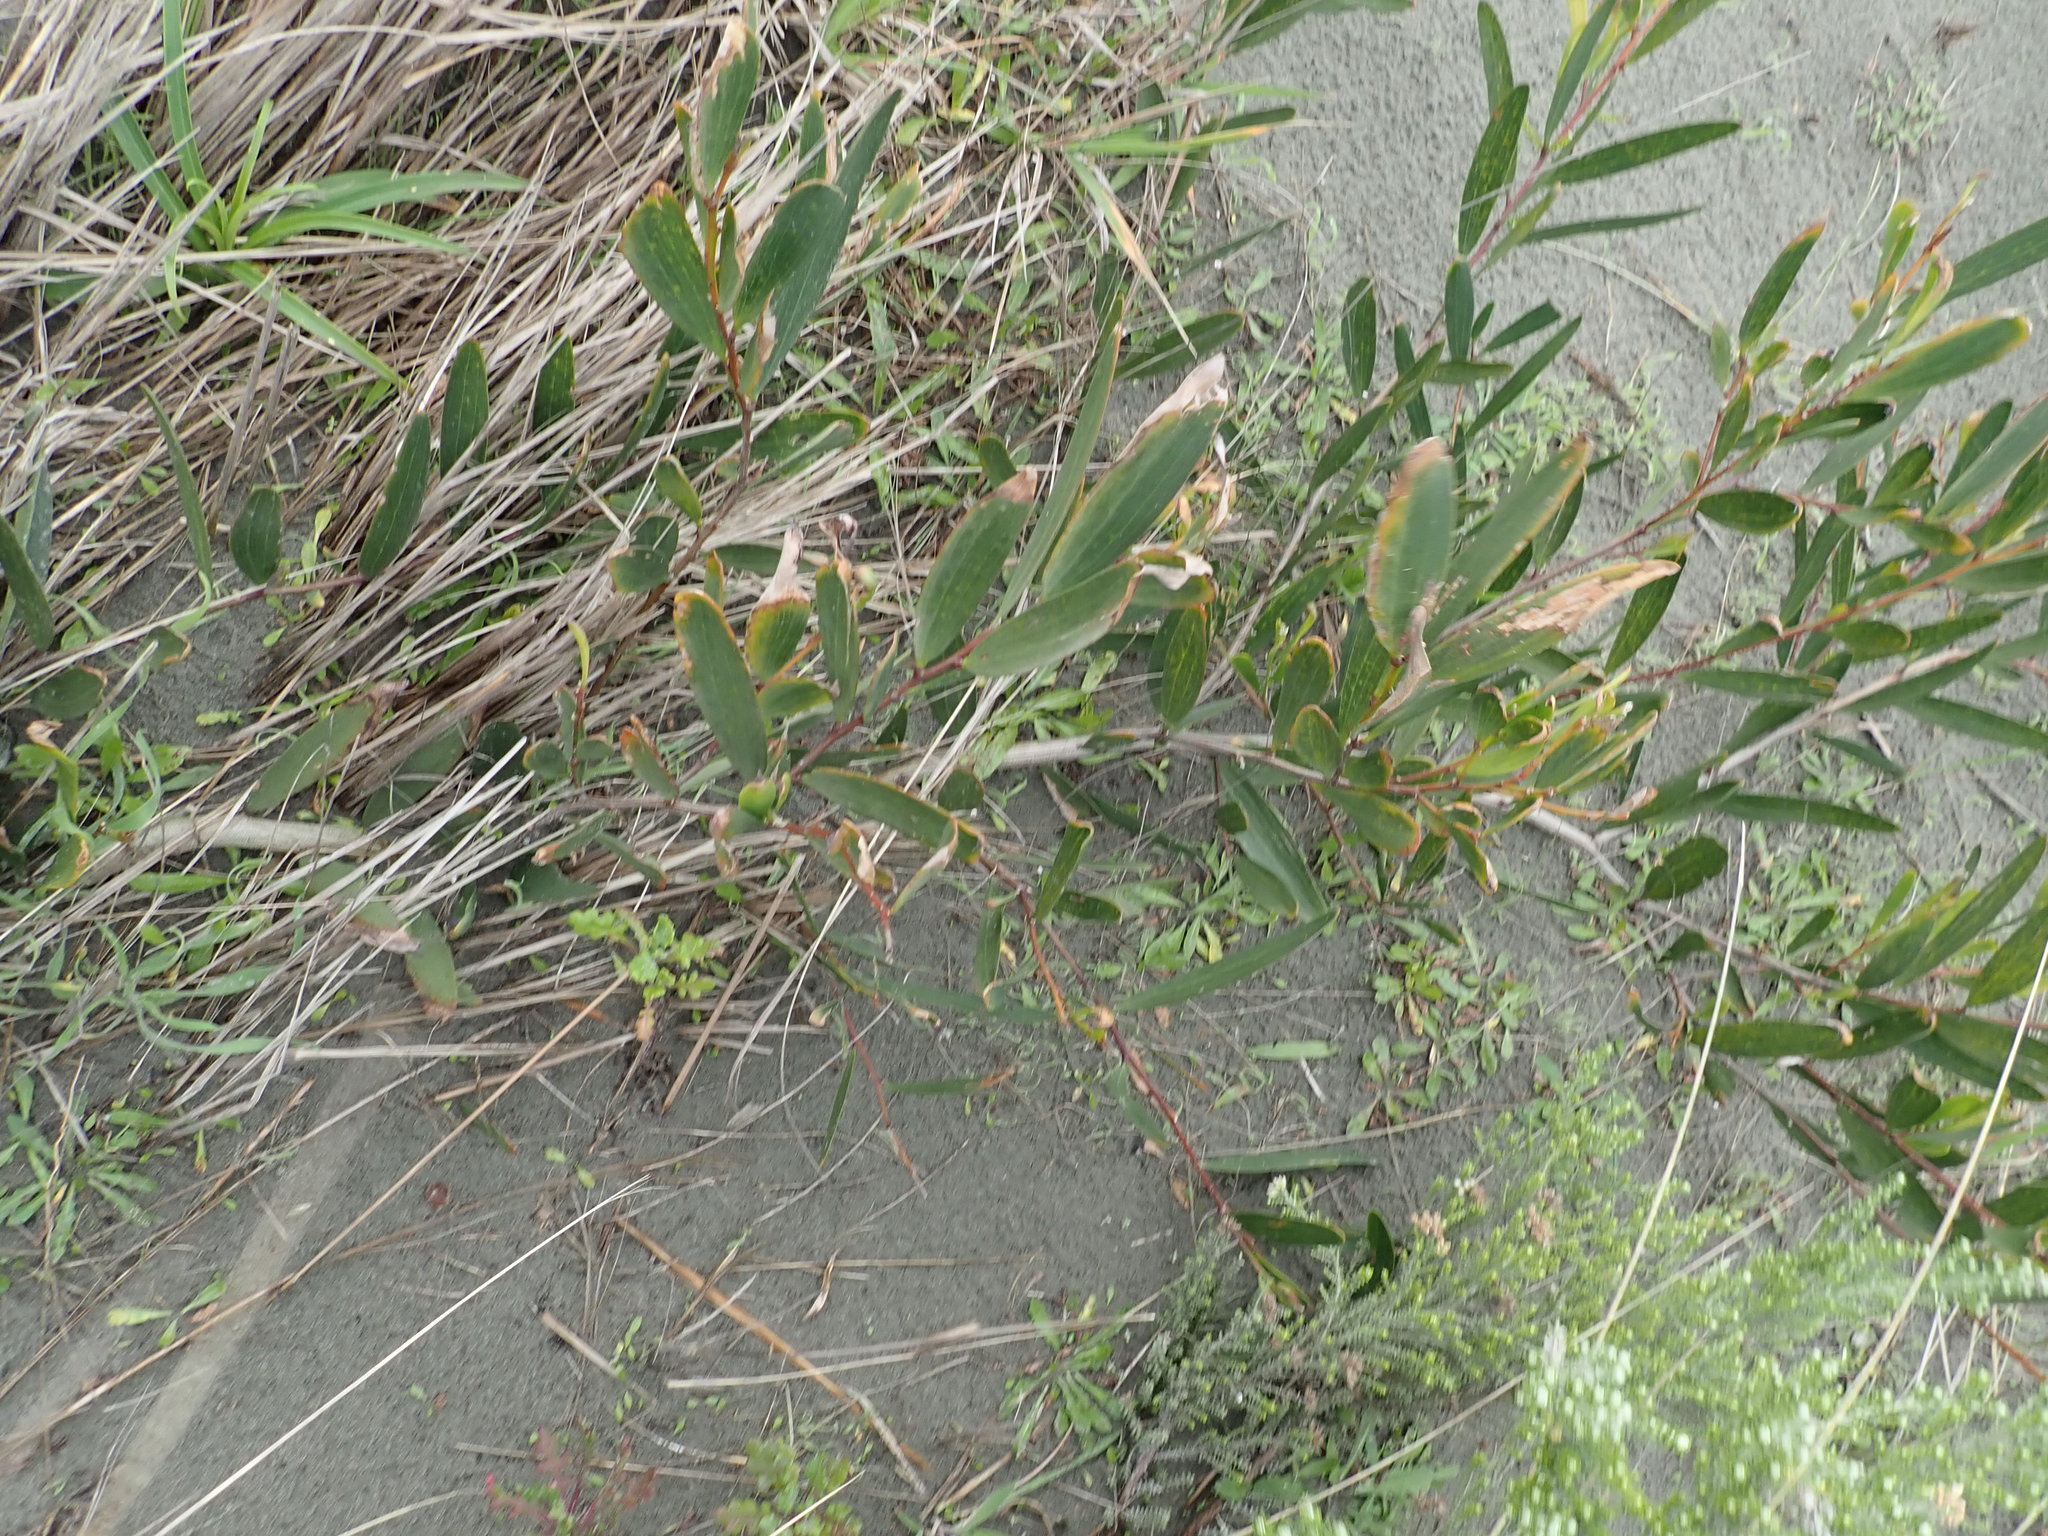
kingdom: Plantae
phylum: Tracheophyta
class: Magnoliopsida
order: Fabales
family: Fabaceae
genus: Acacia
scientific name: Acacia longifolia
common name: Sydney golden wattle
